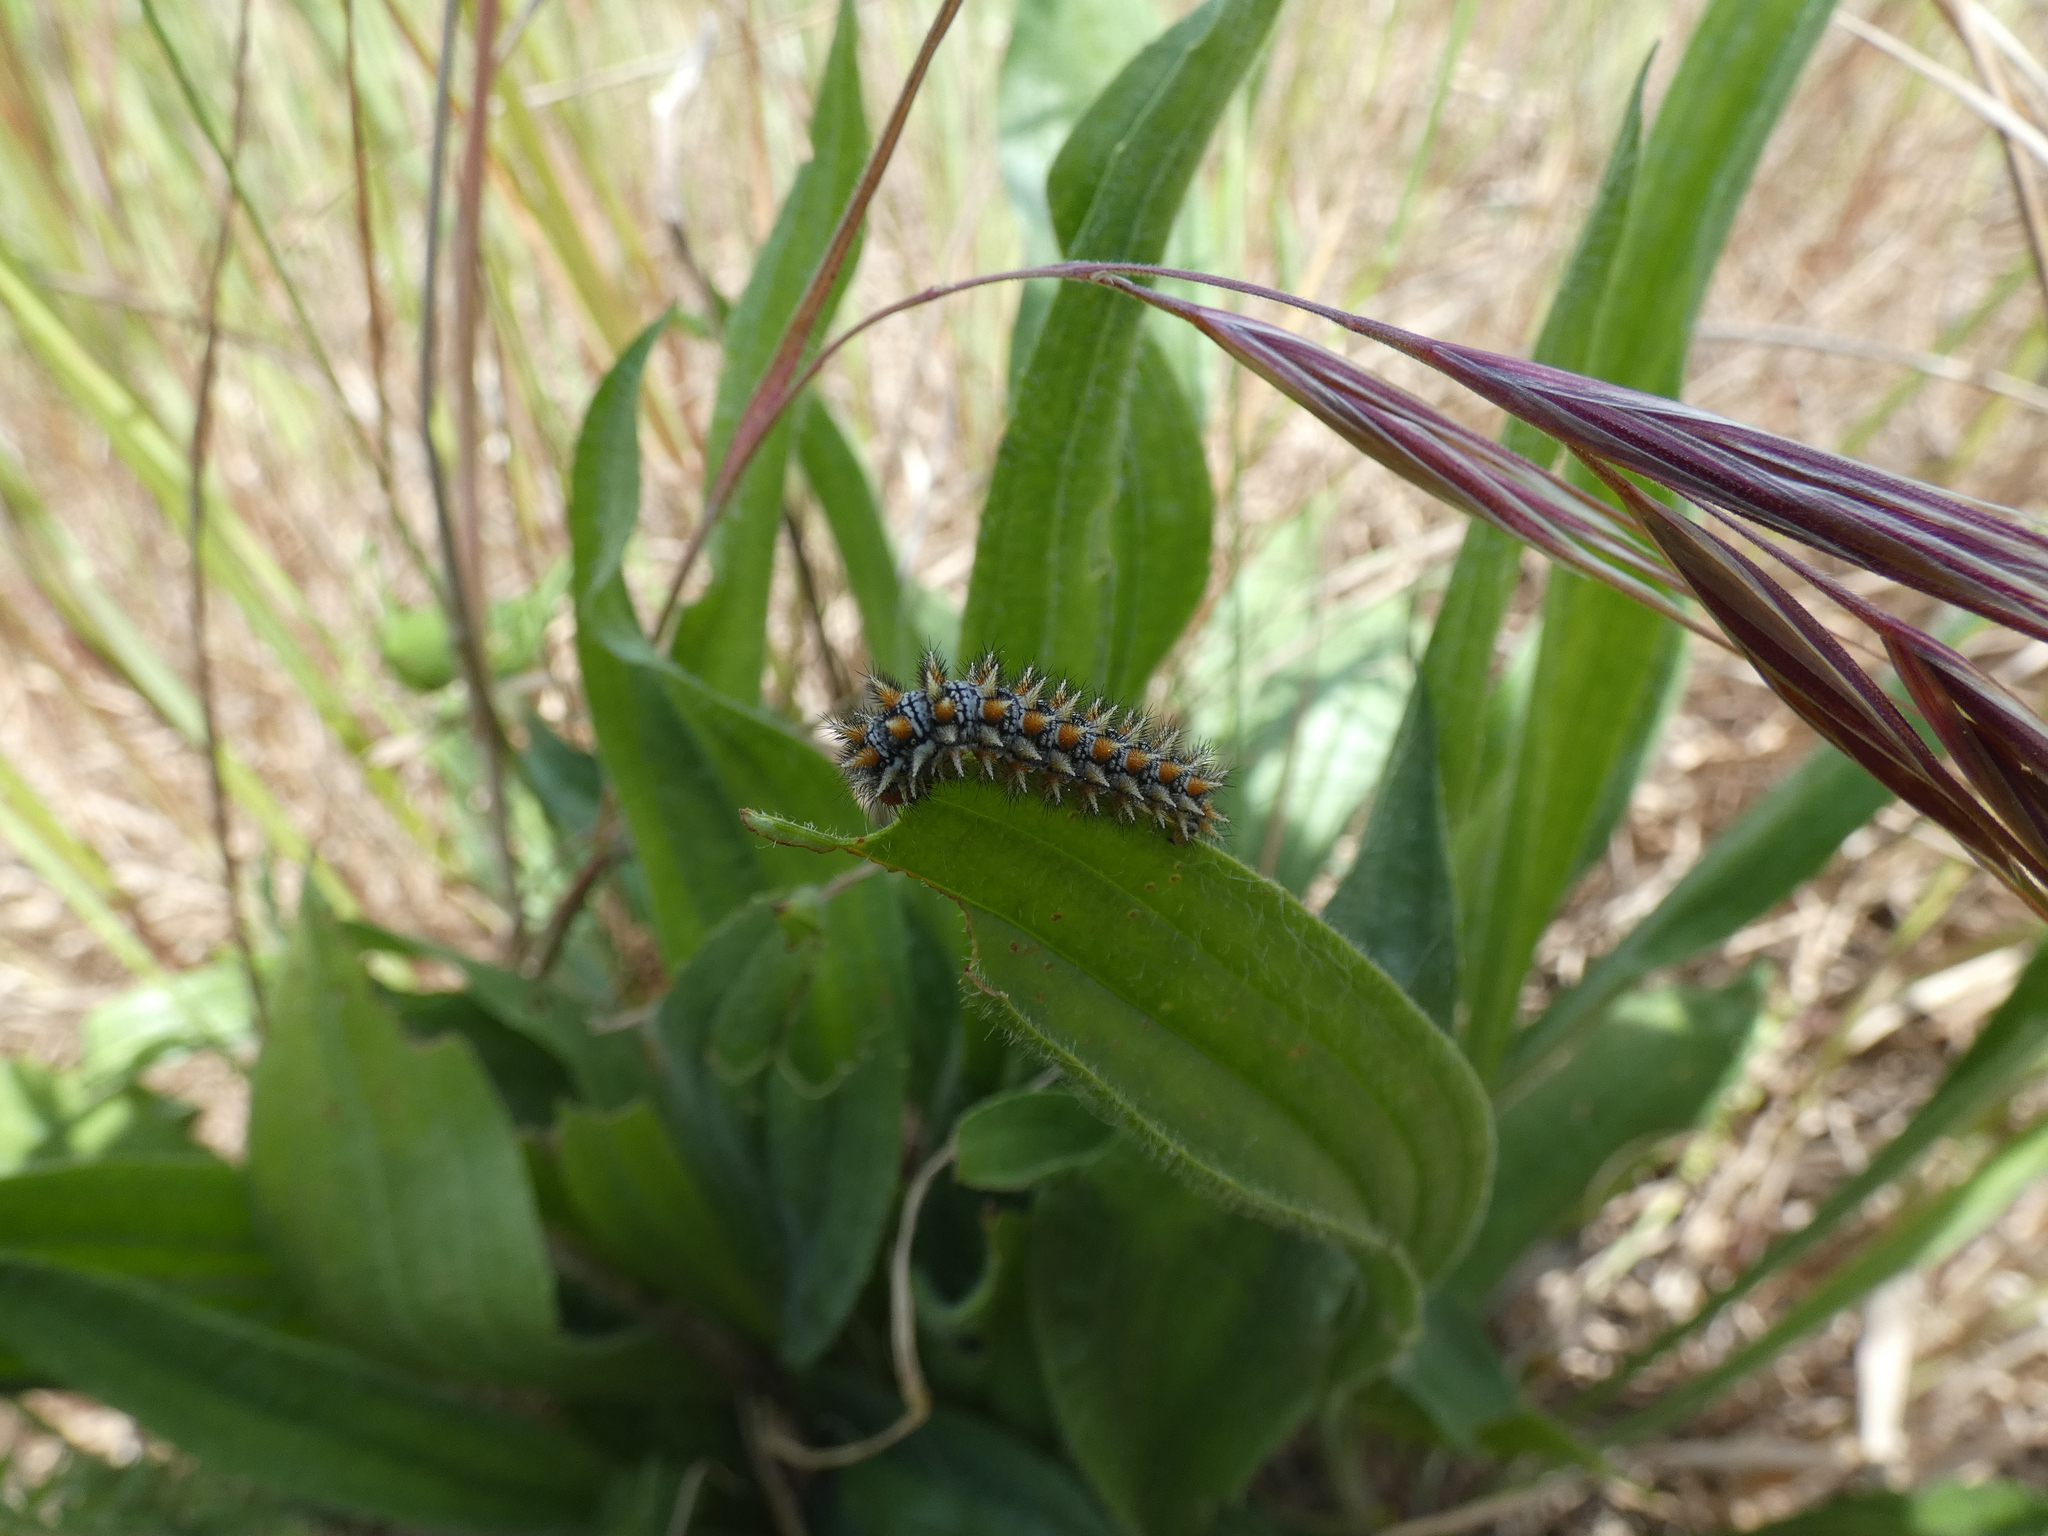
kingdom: Animalia
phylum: Arthropoda
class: Insecta
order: Lepidoptera
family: Nymphalidae
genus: Melitaea
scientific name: Melitaea didyma
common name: Spotted fritillary
